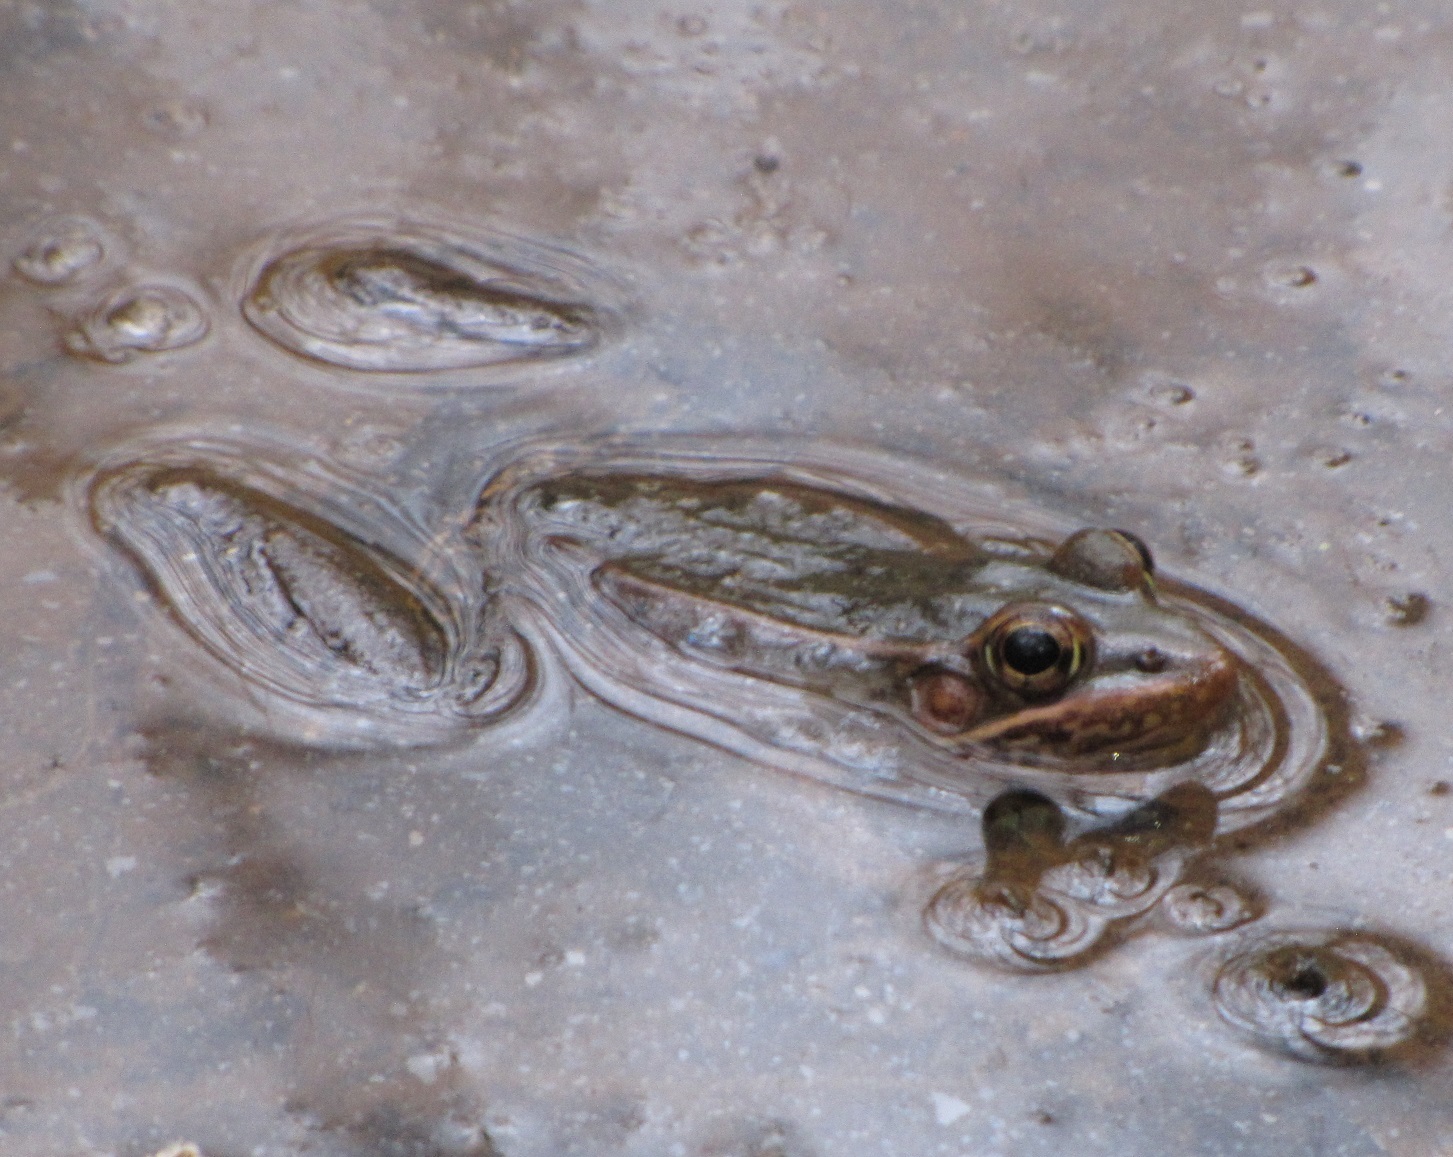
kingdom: Animalia
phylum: Chordata
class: Amphibia
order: Anura
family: Ranidae
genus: Lithobates
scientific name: Lithobates sphenocephalus
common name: Southern leopard frog
